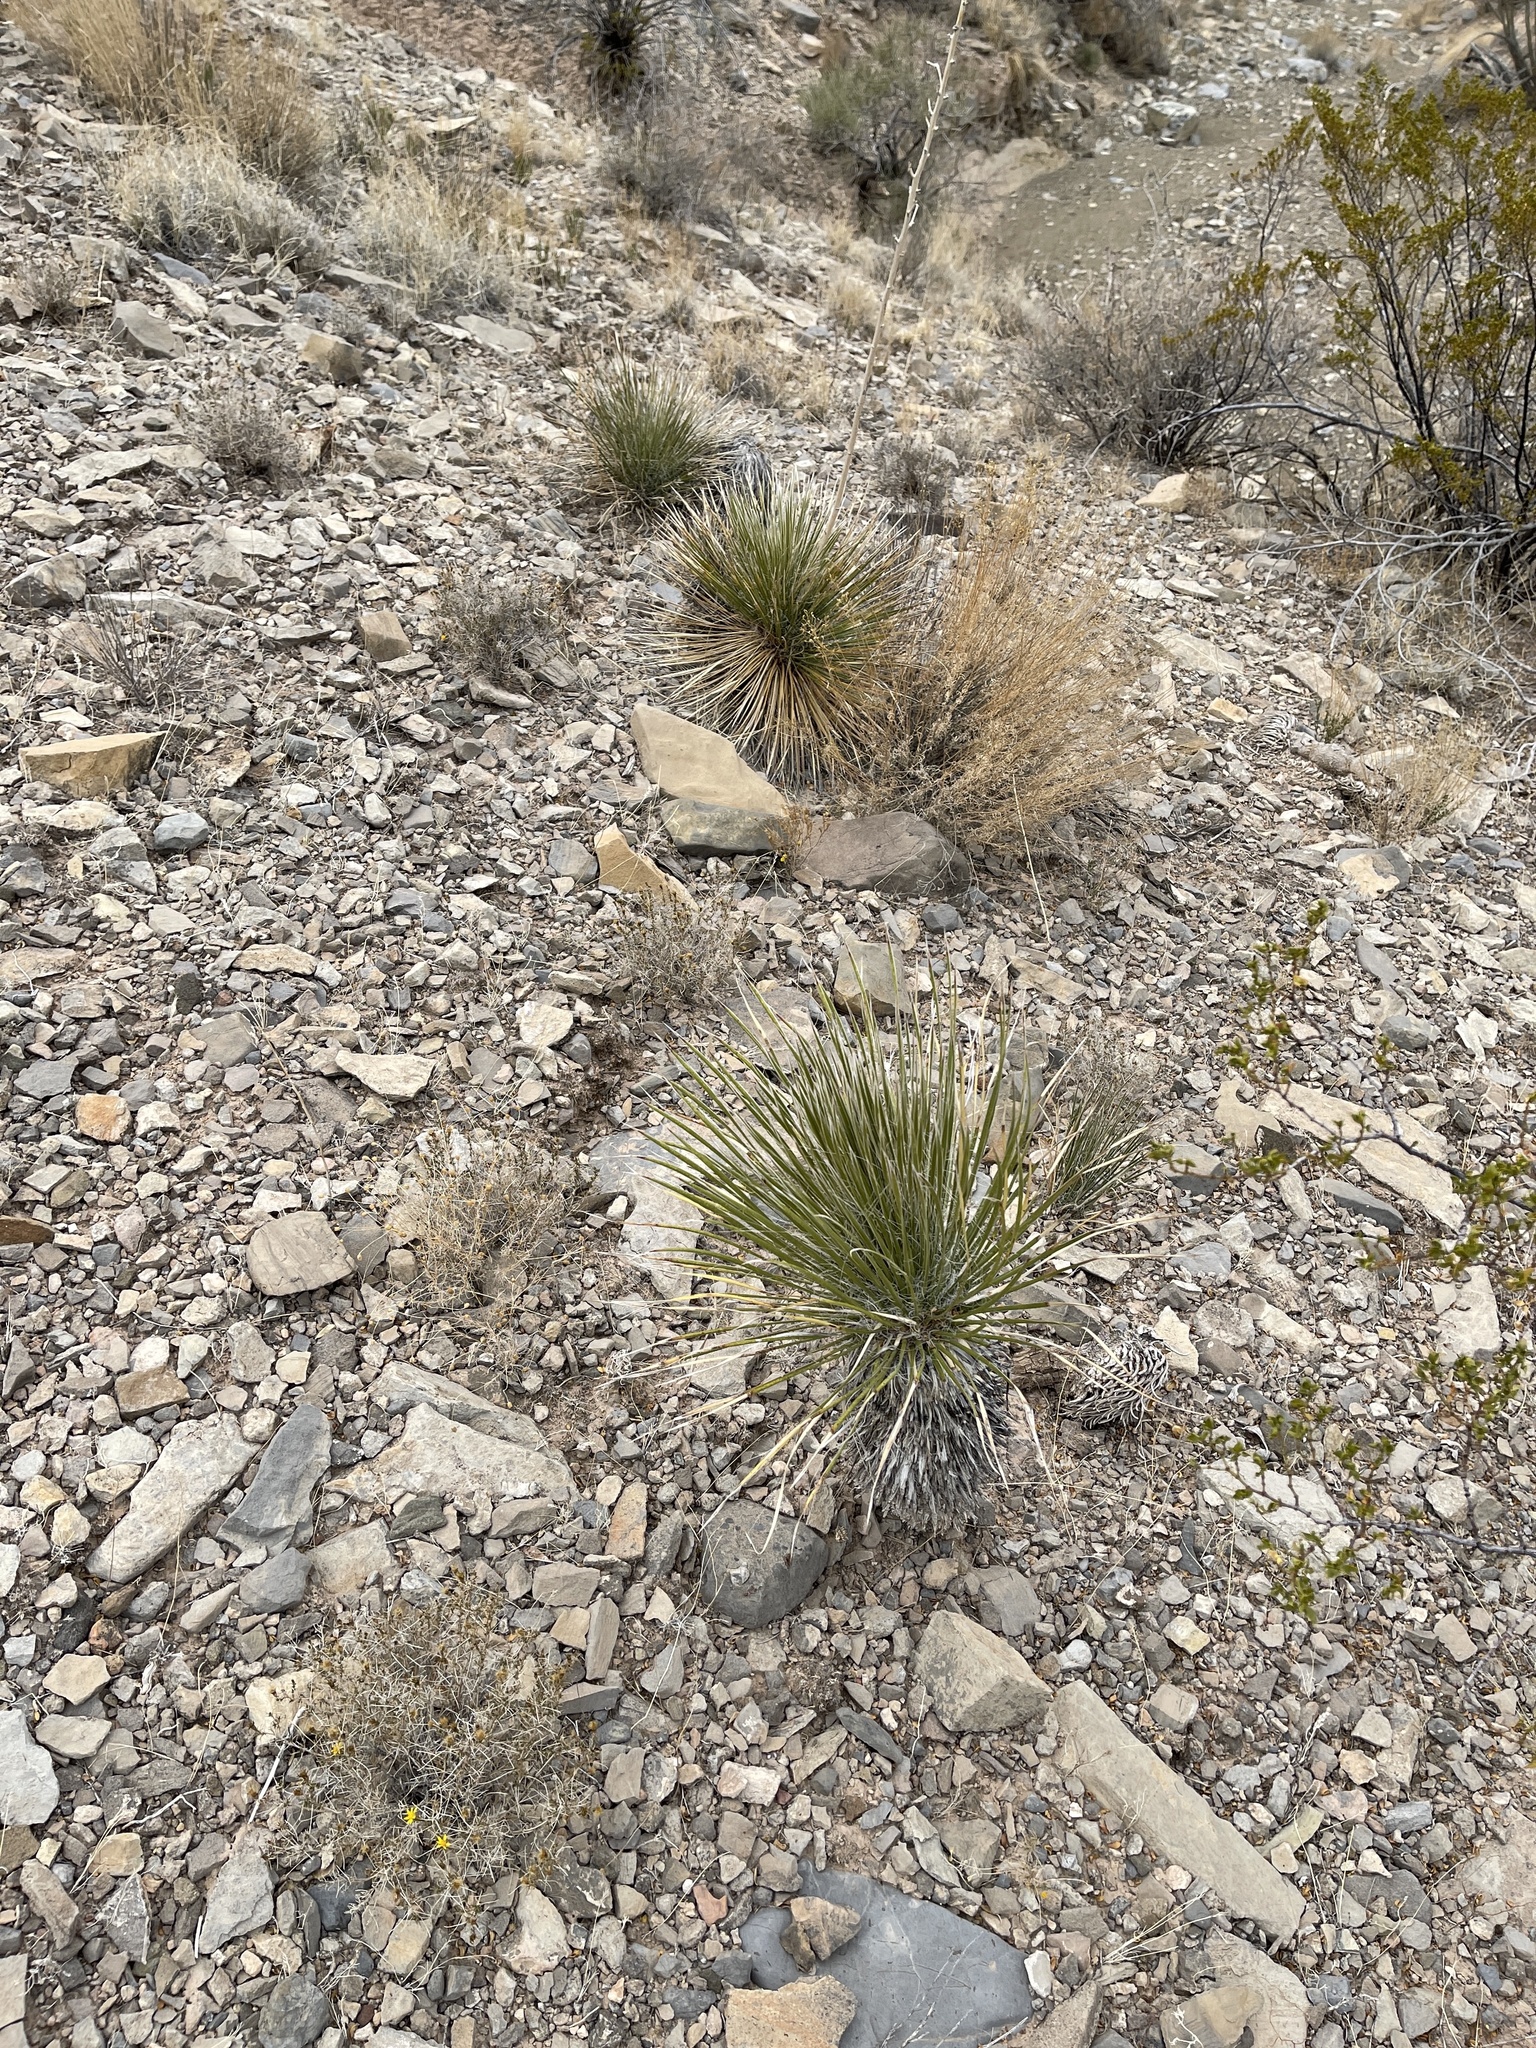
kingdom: Plantae
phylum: Tracheophyta
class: Liliopsida
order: Asparagales
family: Asparagaceae
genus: Yucca
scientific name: Yucca elata
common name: Palmella
